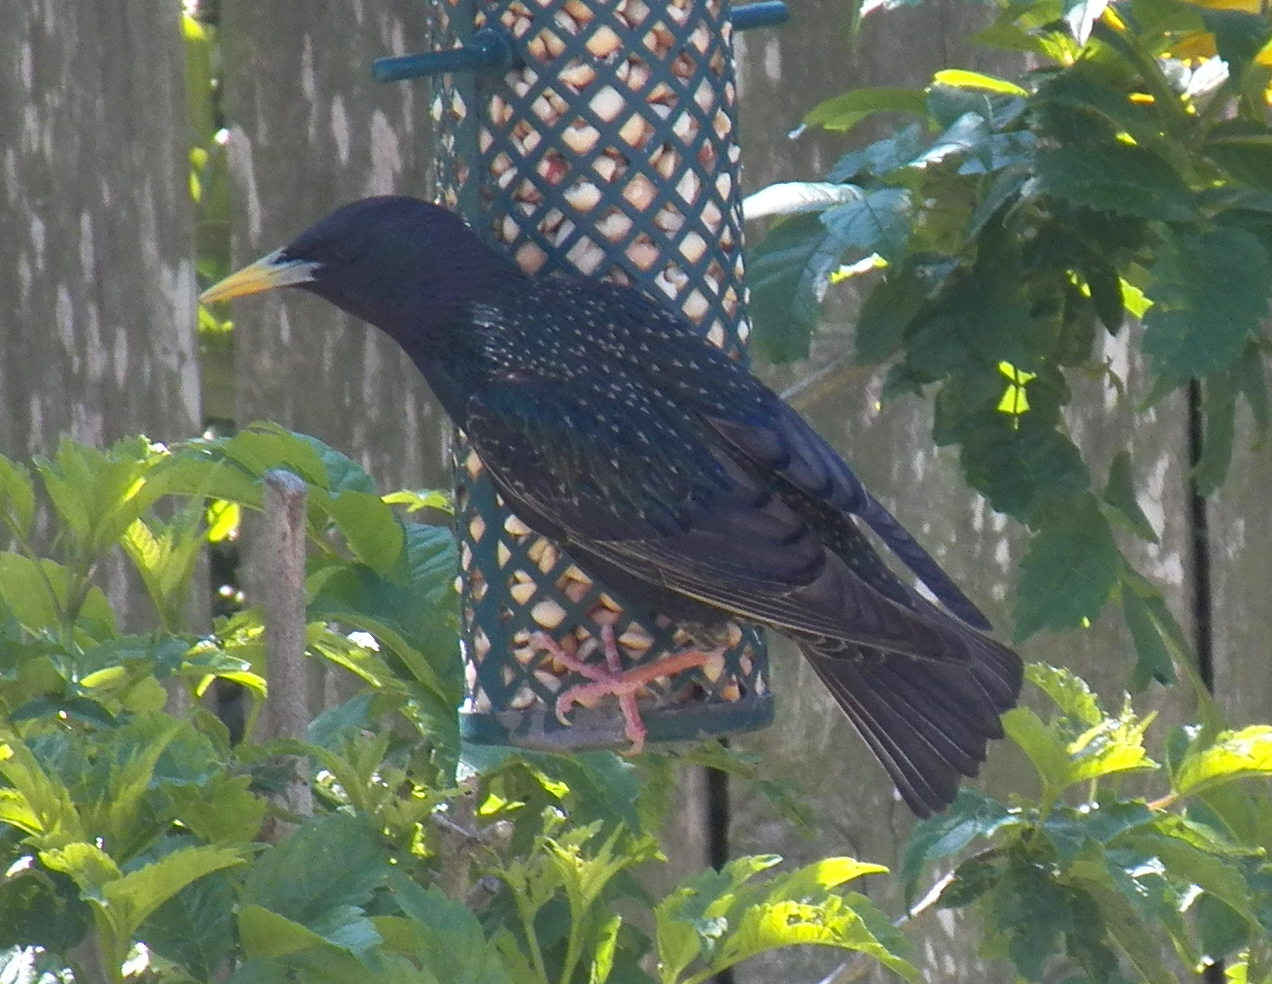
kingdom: Animalia
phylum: Chordata
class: Aves
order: Passeriformes
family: Sturnidae
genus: Sturnus
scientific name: Sturnus vulgaris
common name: Common starling
